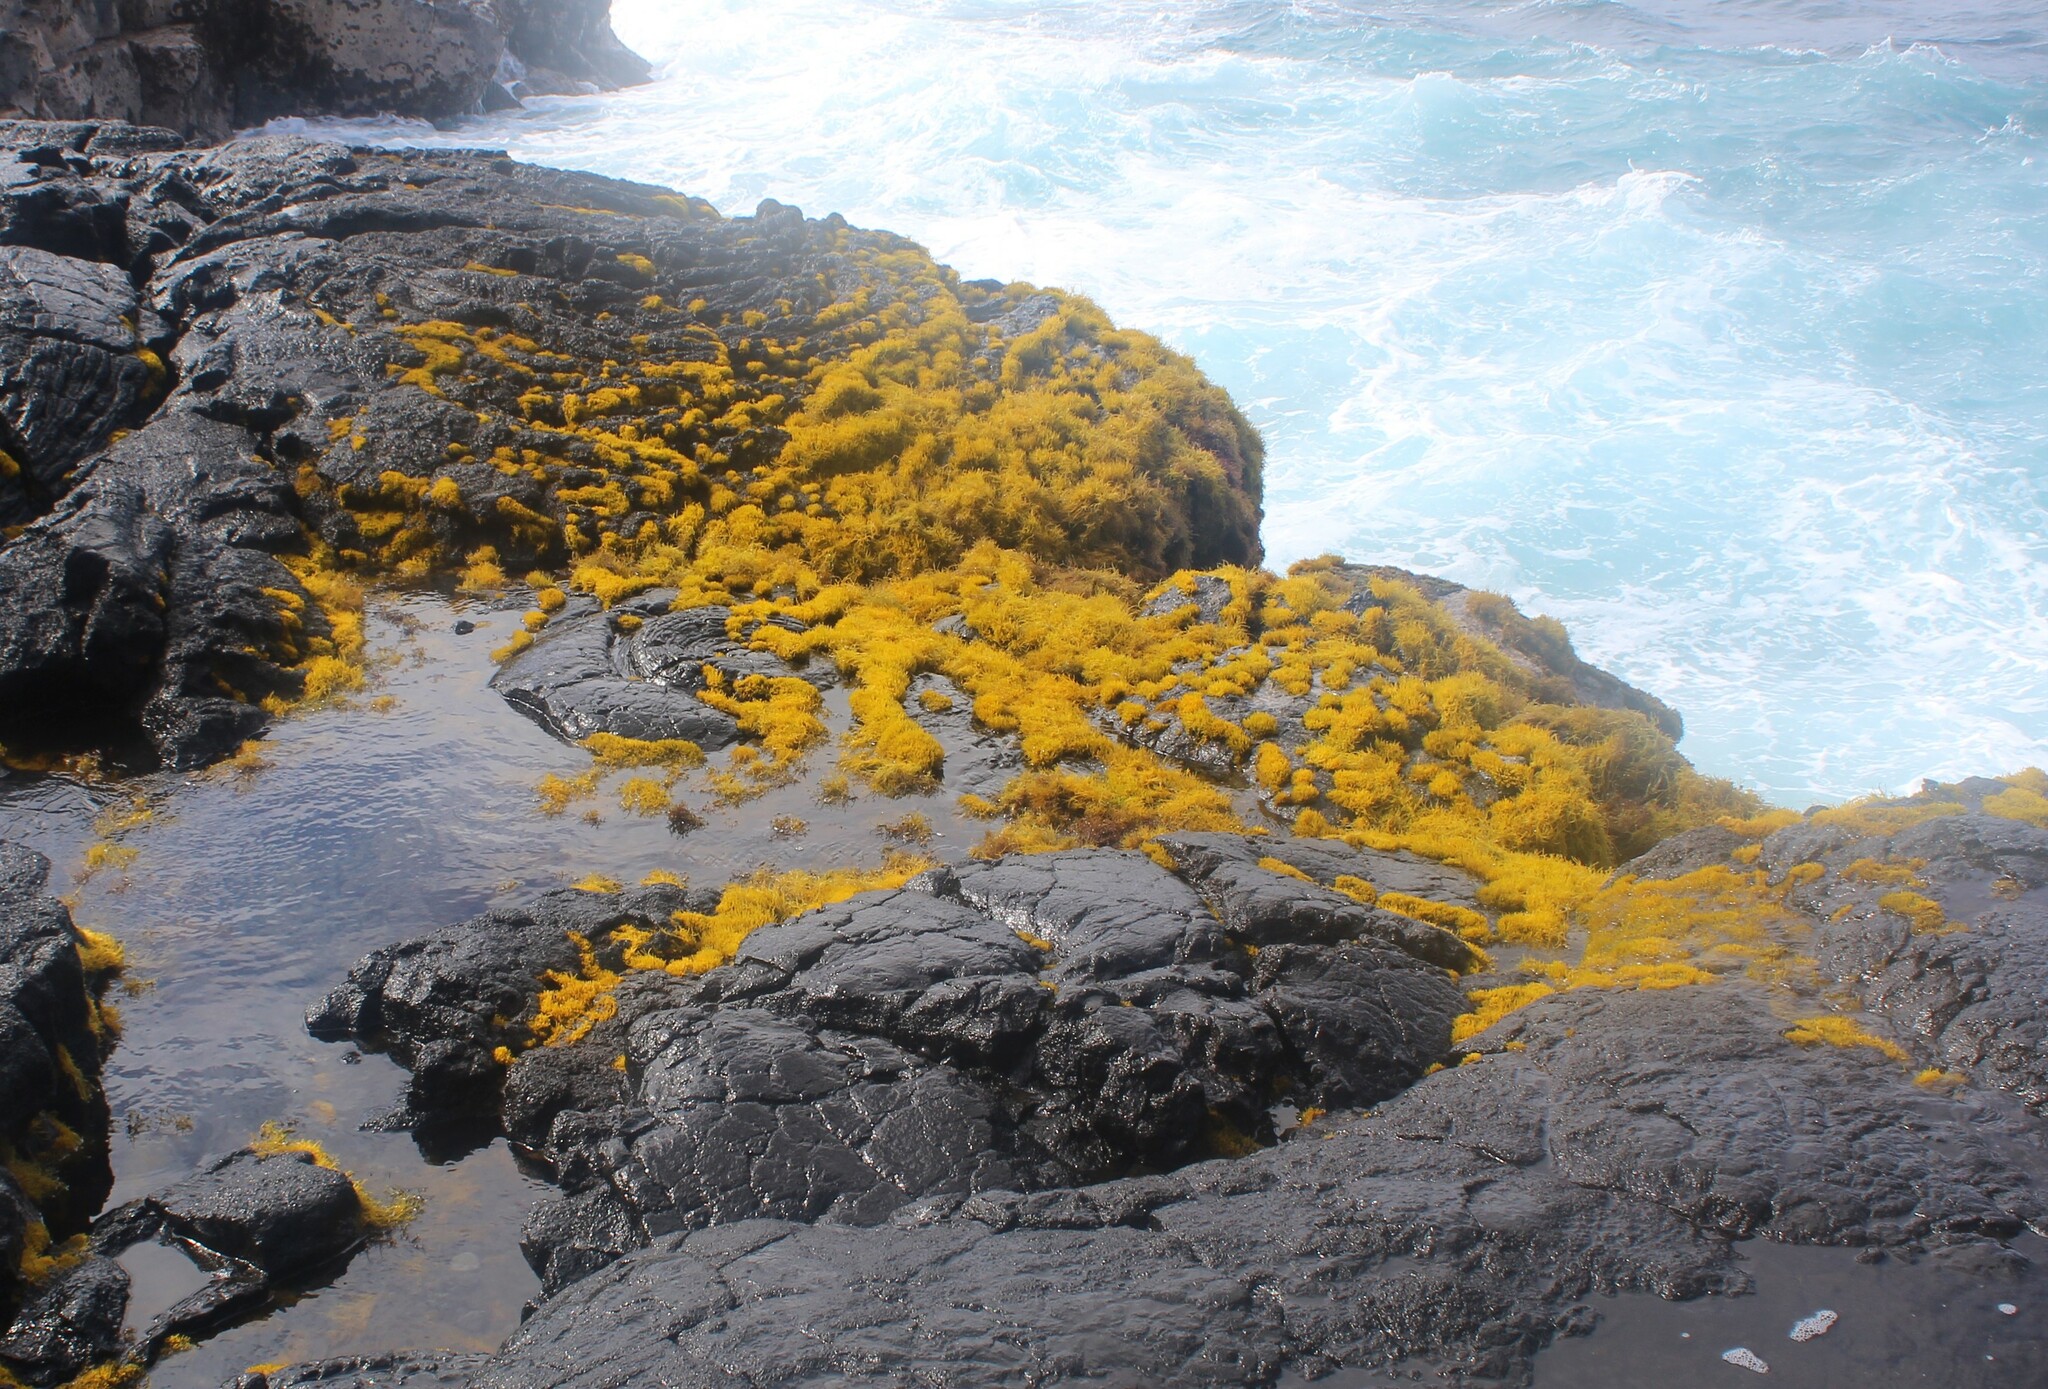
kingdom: Plantae
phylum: Rhodophyta
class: Florideophyceae
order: Gigartinales
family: Phyllophoraceae
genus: Gymnogongrus
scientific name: Gymnogongrus durvillei
